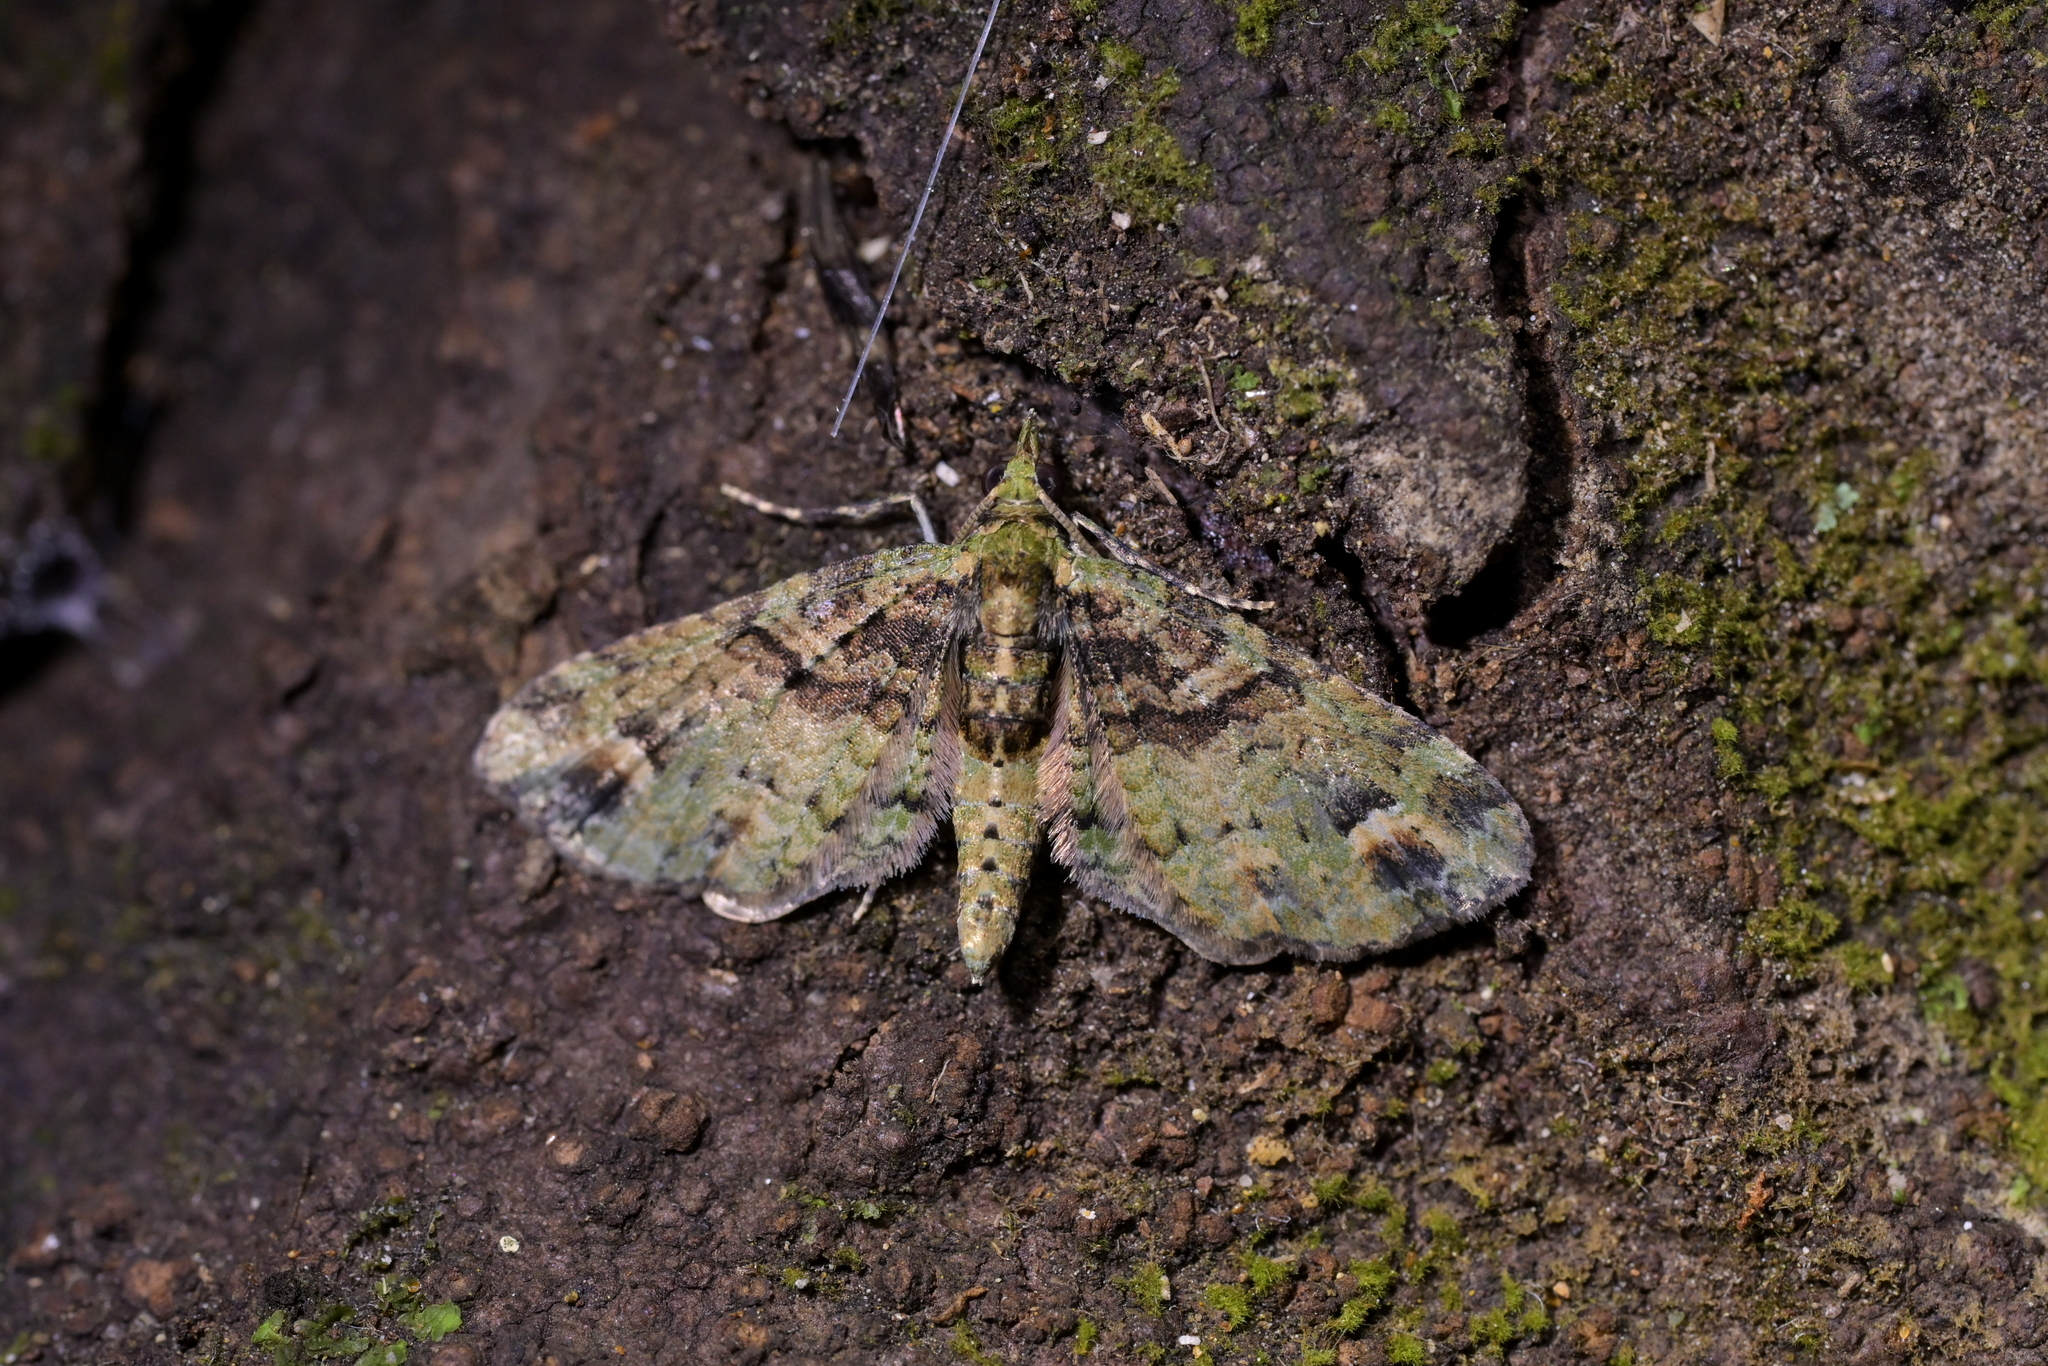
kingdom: Animalia
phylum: Arthropoda
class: Insecta
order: Lepidoptera
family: Geometridae
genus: Idaea
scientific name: Idaea mutanda
